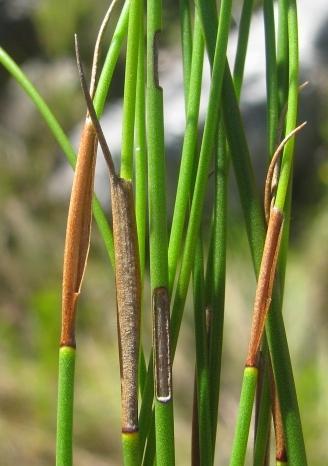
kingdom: Plantae
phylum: Tracheophyta
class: Liliopsida
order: Poales
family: Restionaceae
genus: Elegia
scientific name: Elegia deusta
